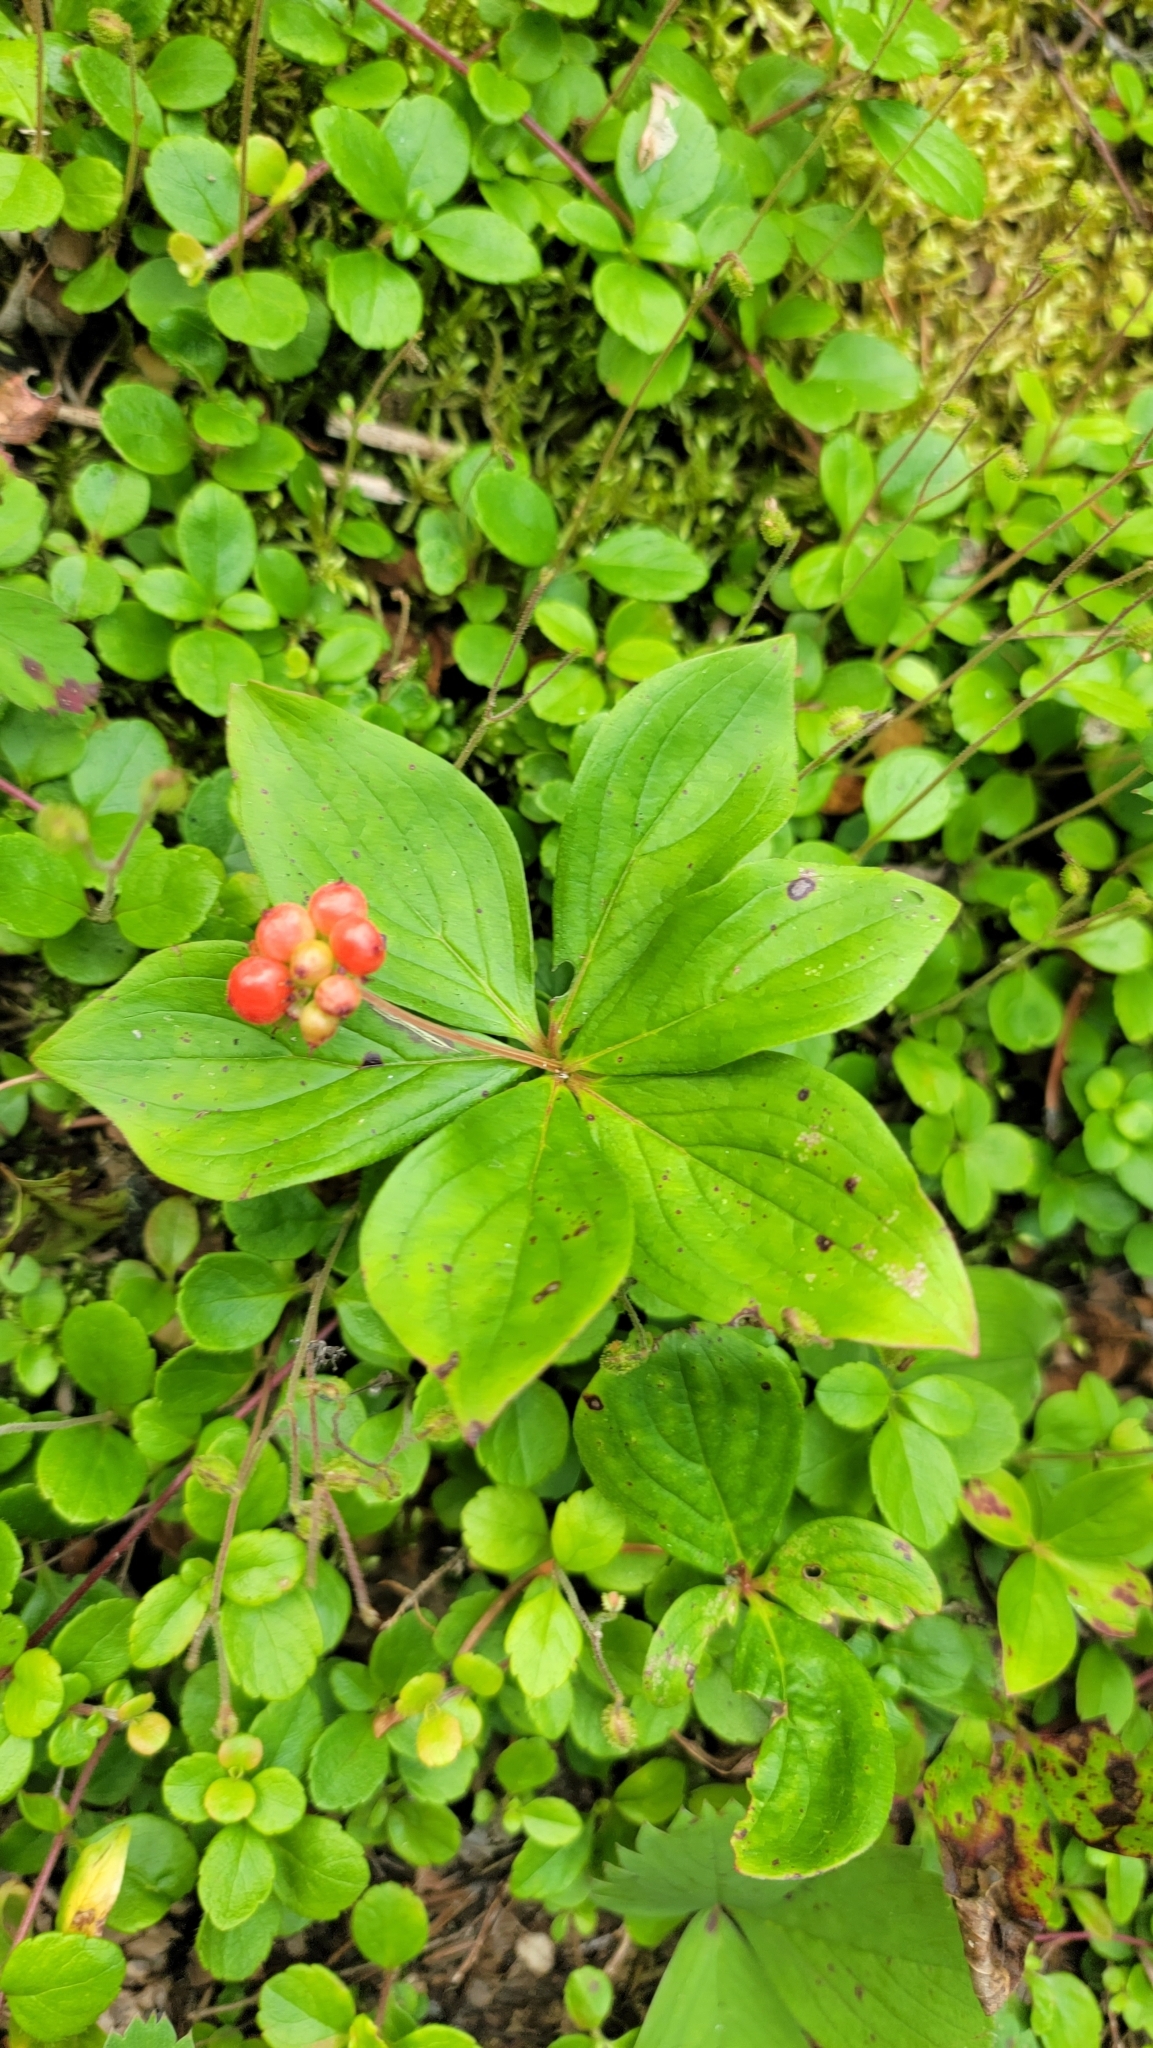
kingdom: Plantae
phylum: Tracheophyta
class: Magnoliopsida
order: Cornales
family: Cornaceae
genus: Cornus
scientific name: Cornus canadensis
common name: Creeping dogwood
